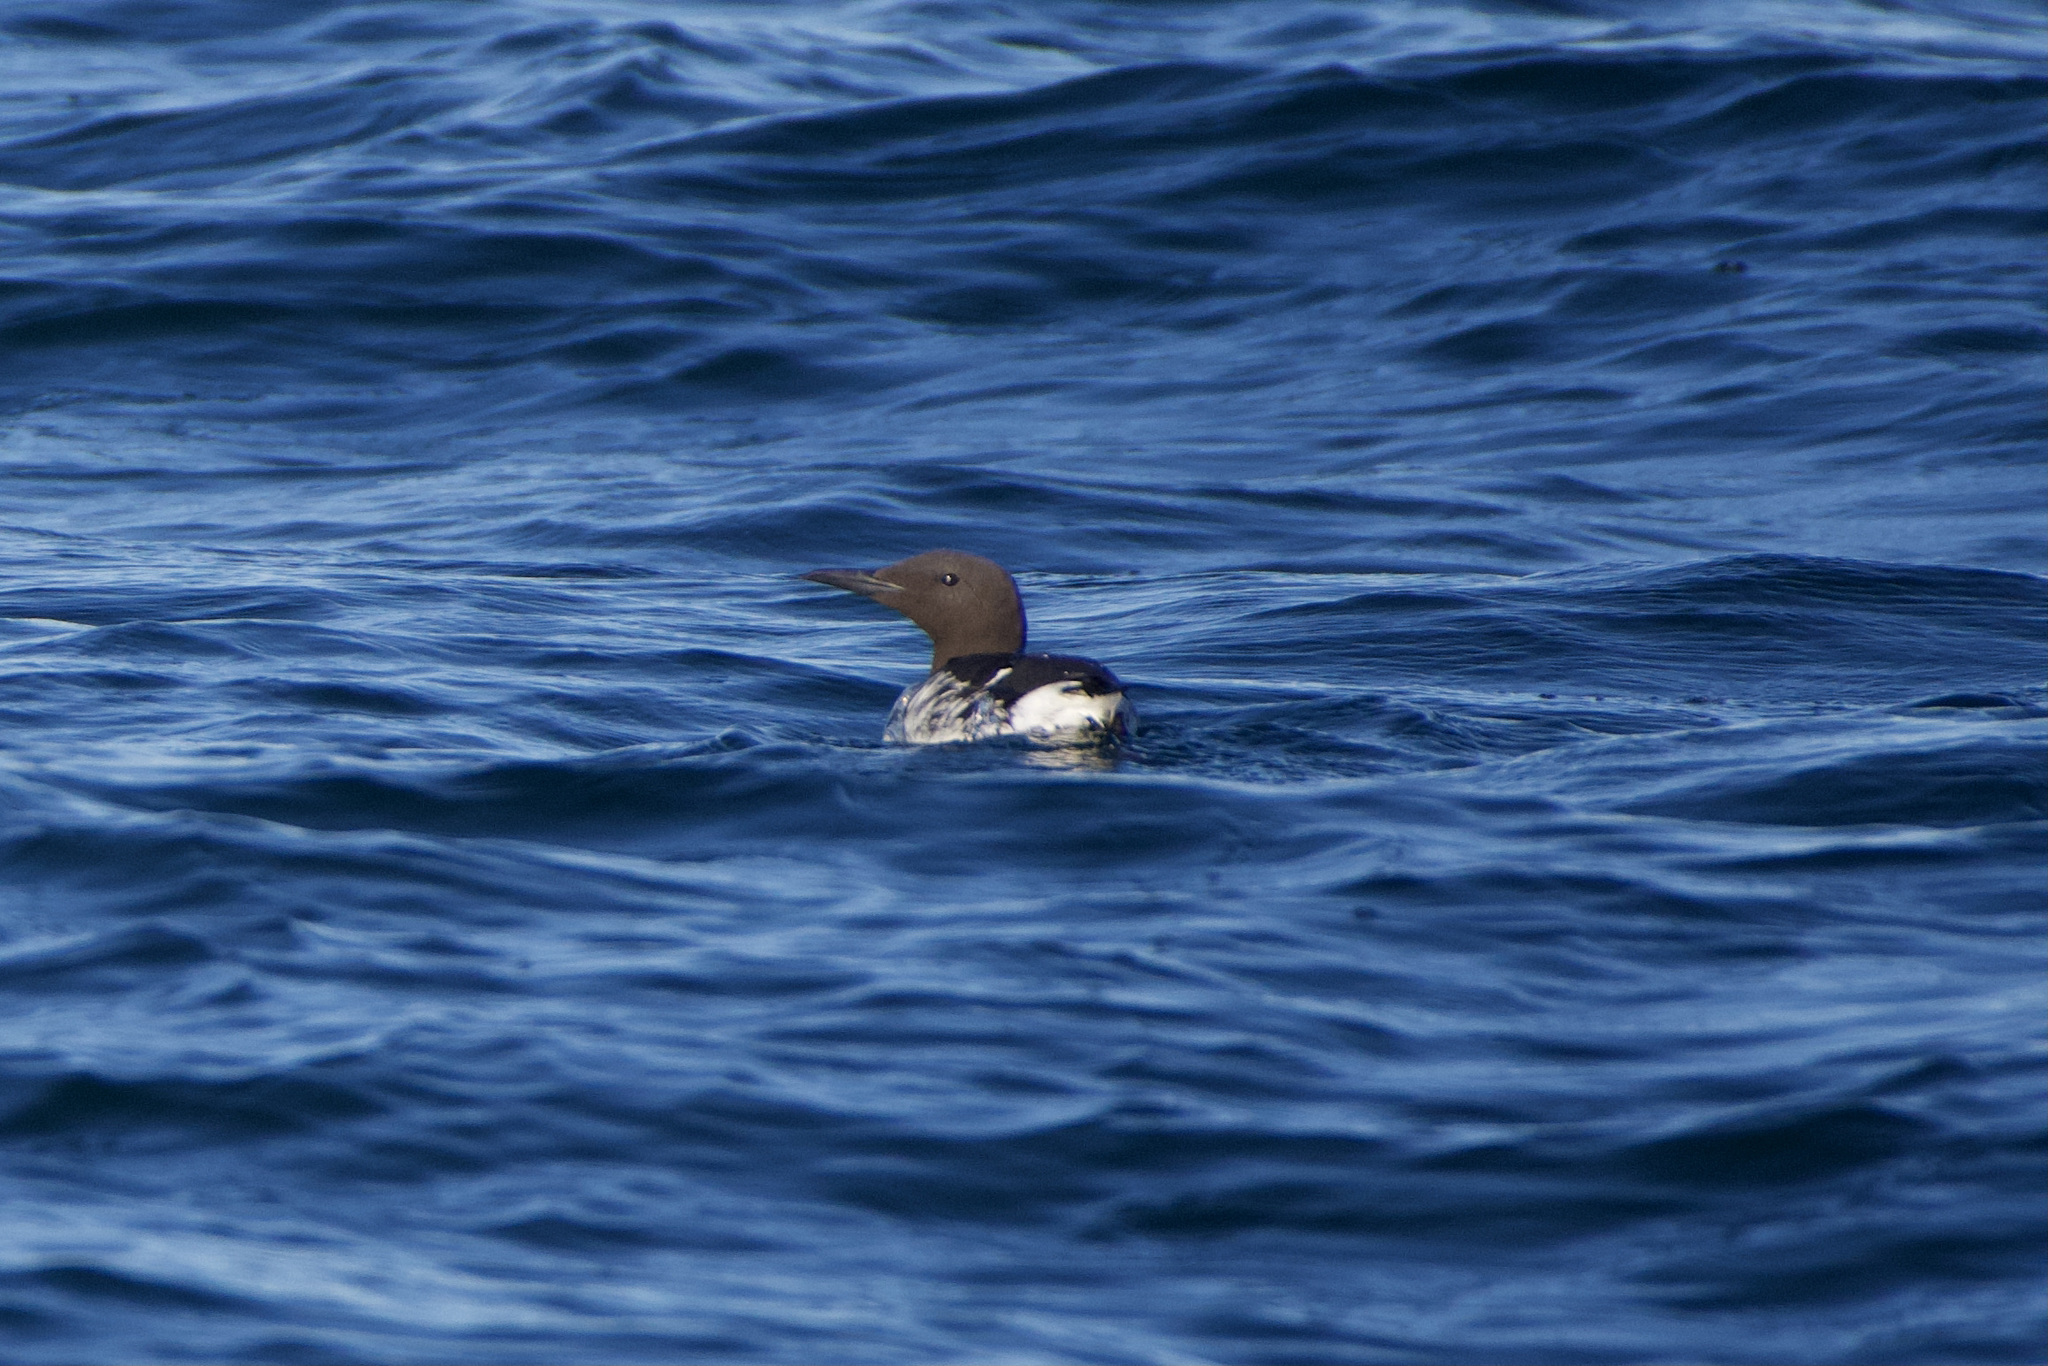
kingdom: Animalia
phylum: Chordata
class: Aves
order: Charadriiformes
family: Alcidae
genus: Uria
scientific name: Uria aalge
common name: Common murre
